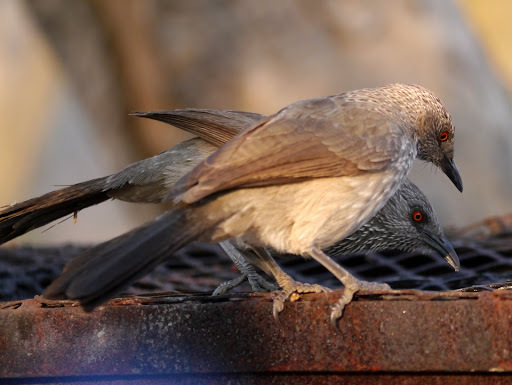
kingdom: Animalia
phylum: Chordata
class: Aves
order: Passeriformes
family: Leiothrichidae
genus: Turdoides
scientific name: Turdoides jardineii
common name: Arrow-marked babbler
